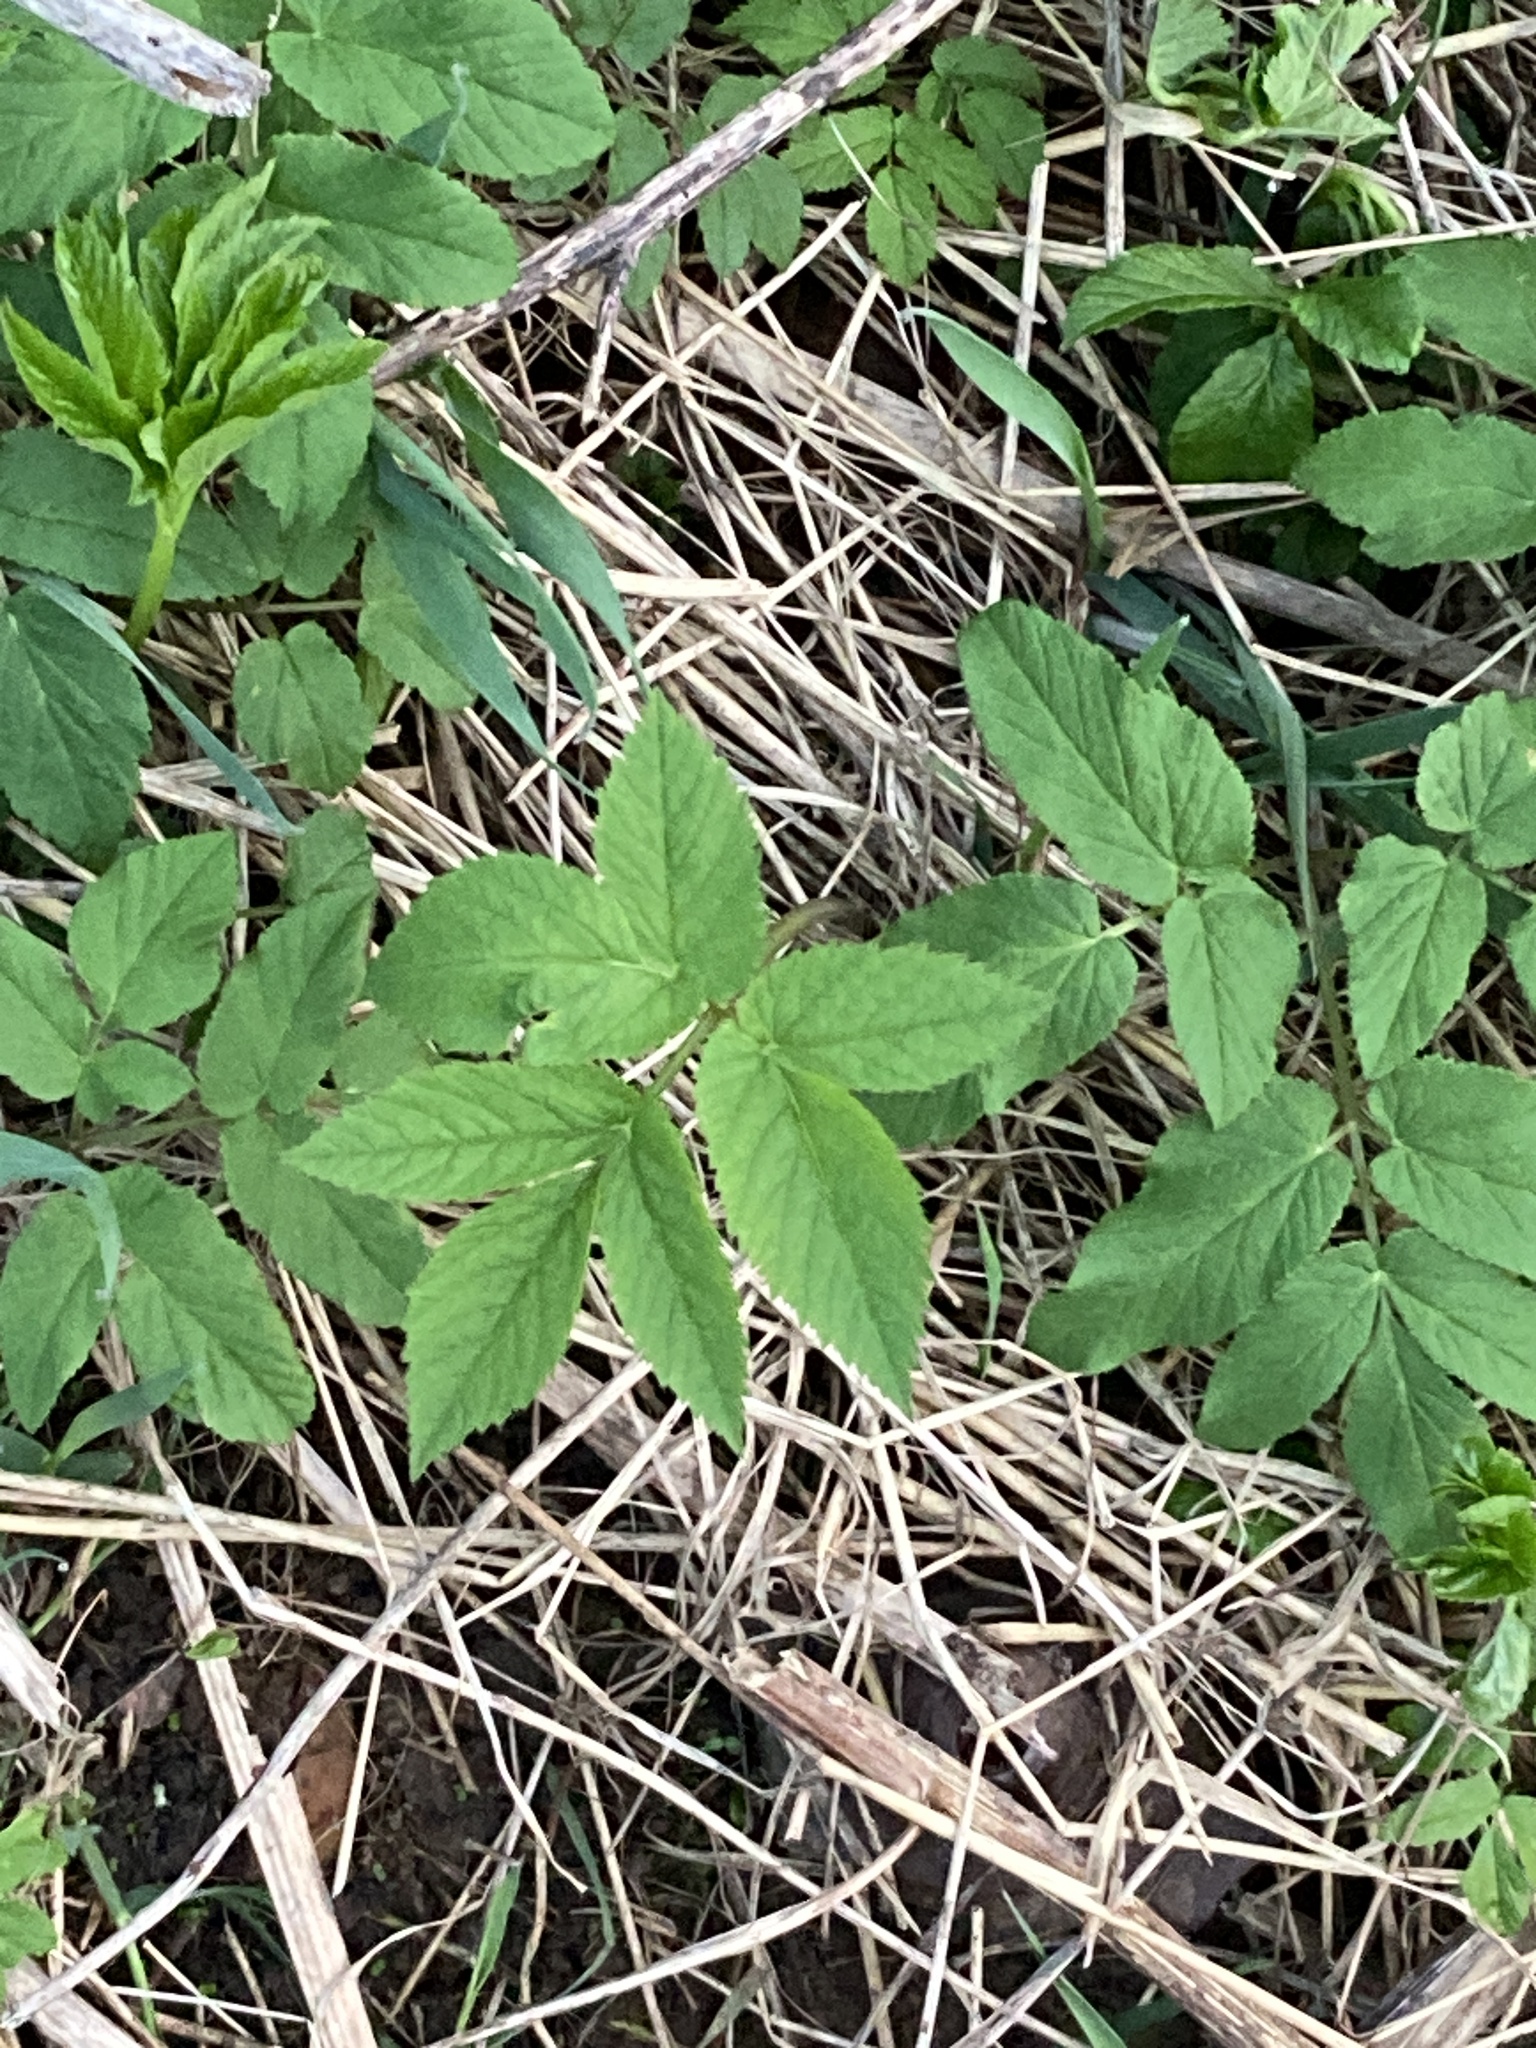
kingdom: Plantae
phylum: Tracheophyta
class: Magnoliopsida
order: Apiales
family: Apiaceae
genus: Aegopodium
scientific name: Aegopodium podagraria
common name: Ground-elder
